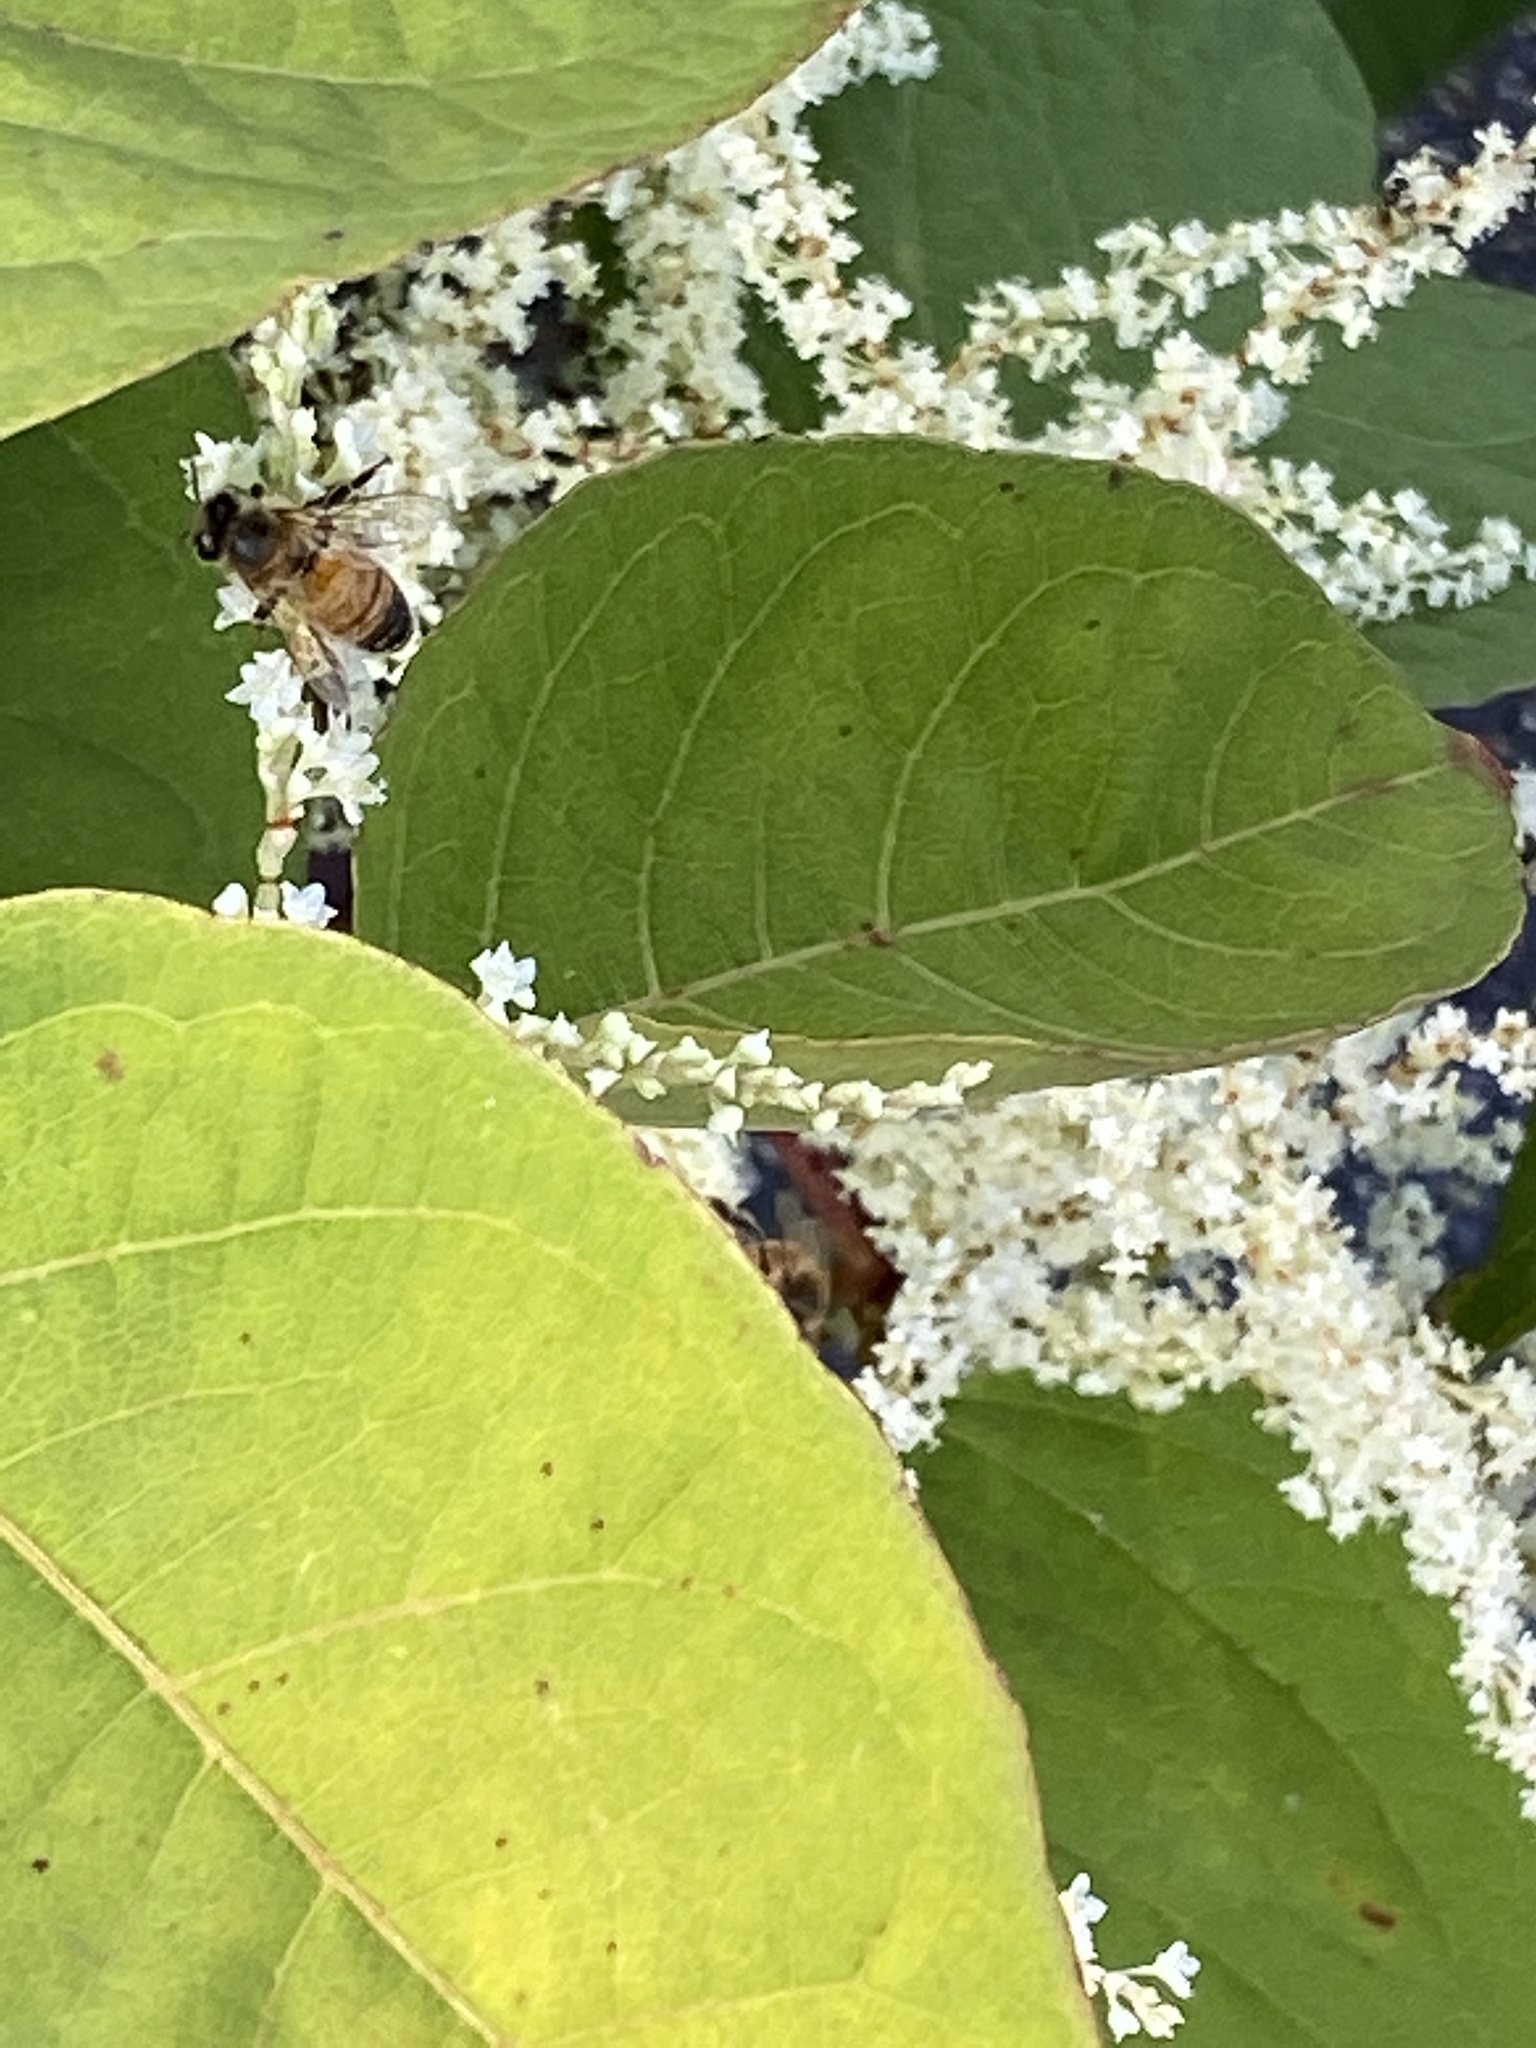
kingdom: Animalia
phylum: Arthropoda
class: Insecta
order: Hymenoptera
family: Apidae
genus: Apis
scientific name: Apis mellifera
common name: Honey bee
